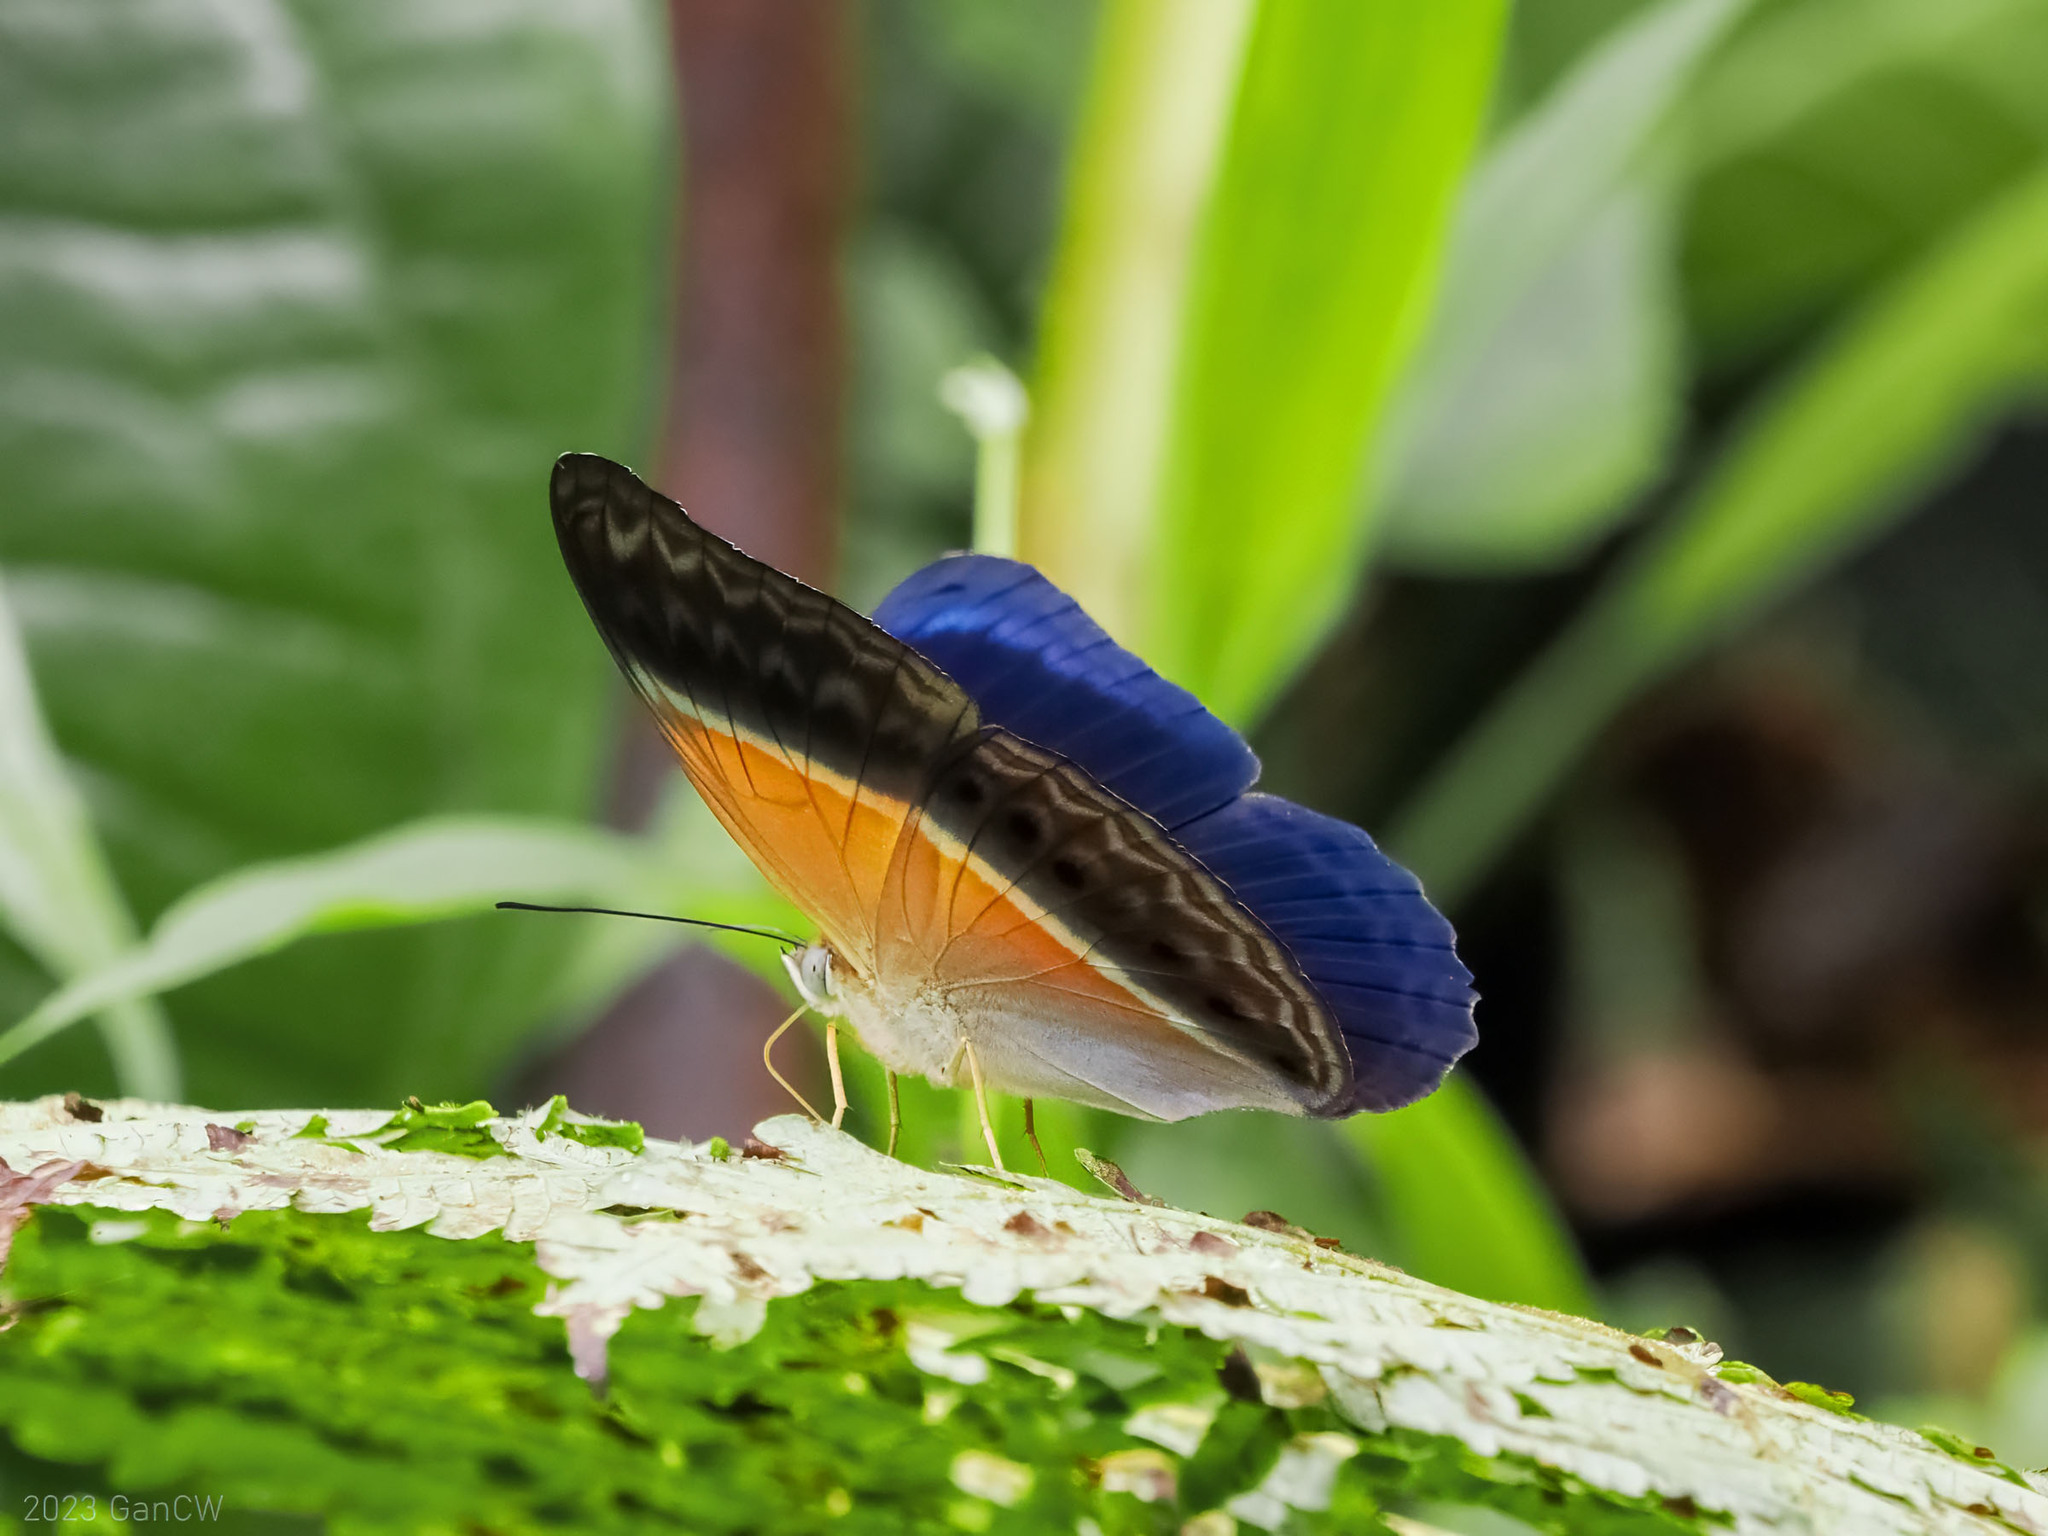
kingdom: Animalia
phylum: Arthropoda
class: Insecta
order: Lepidoptera
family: Nymphalidae
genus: Cirrochroa
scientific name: Cirrochroa regina
